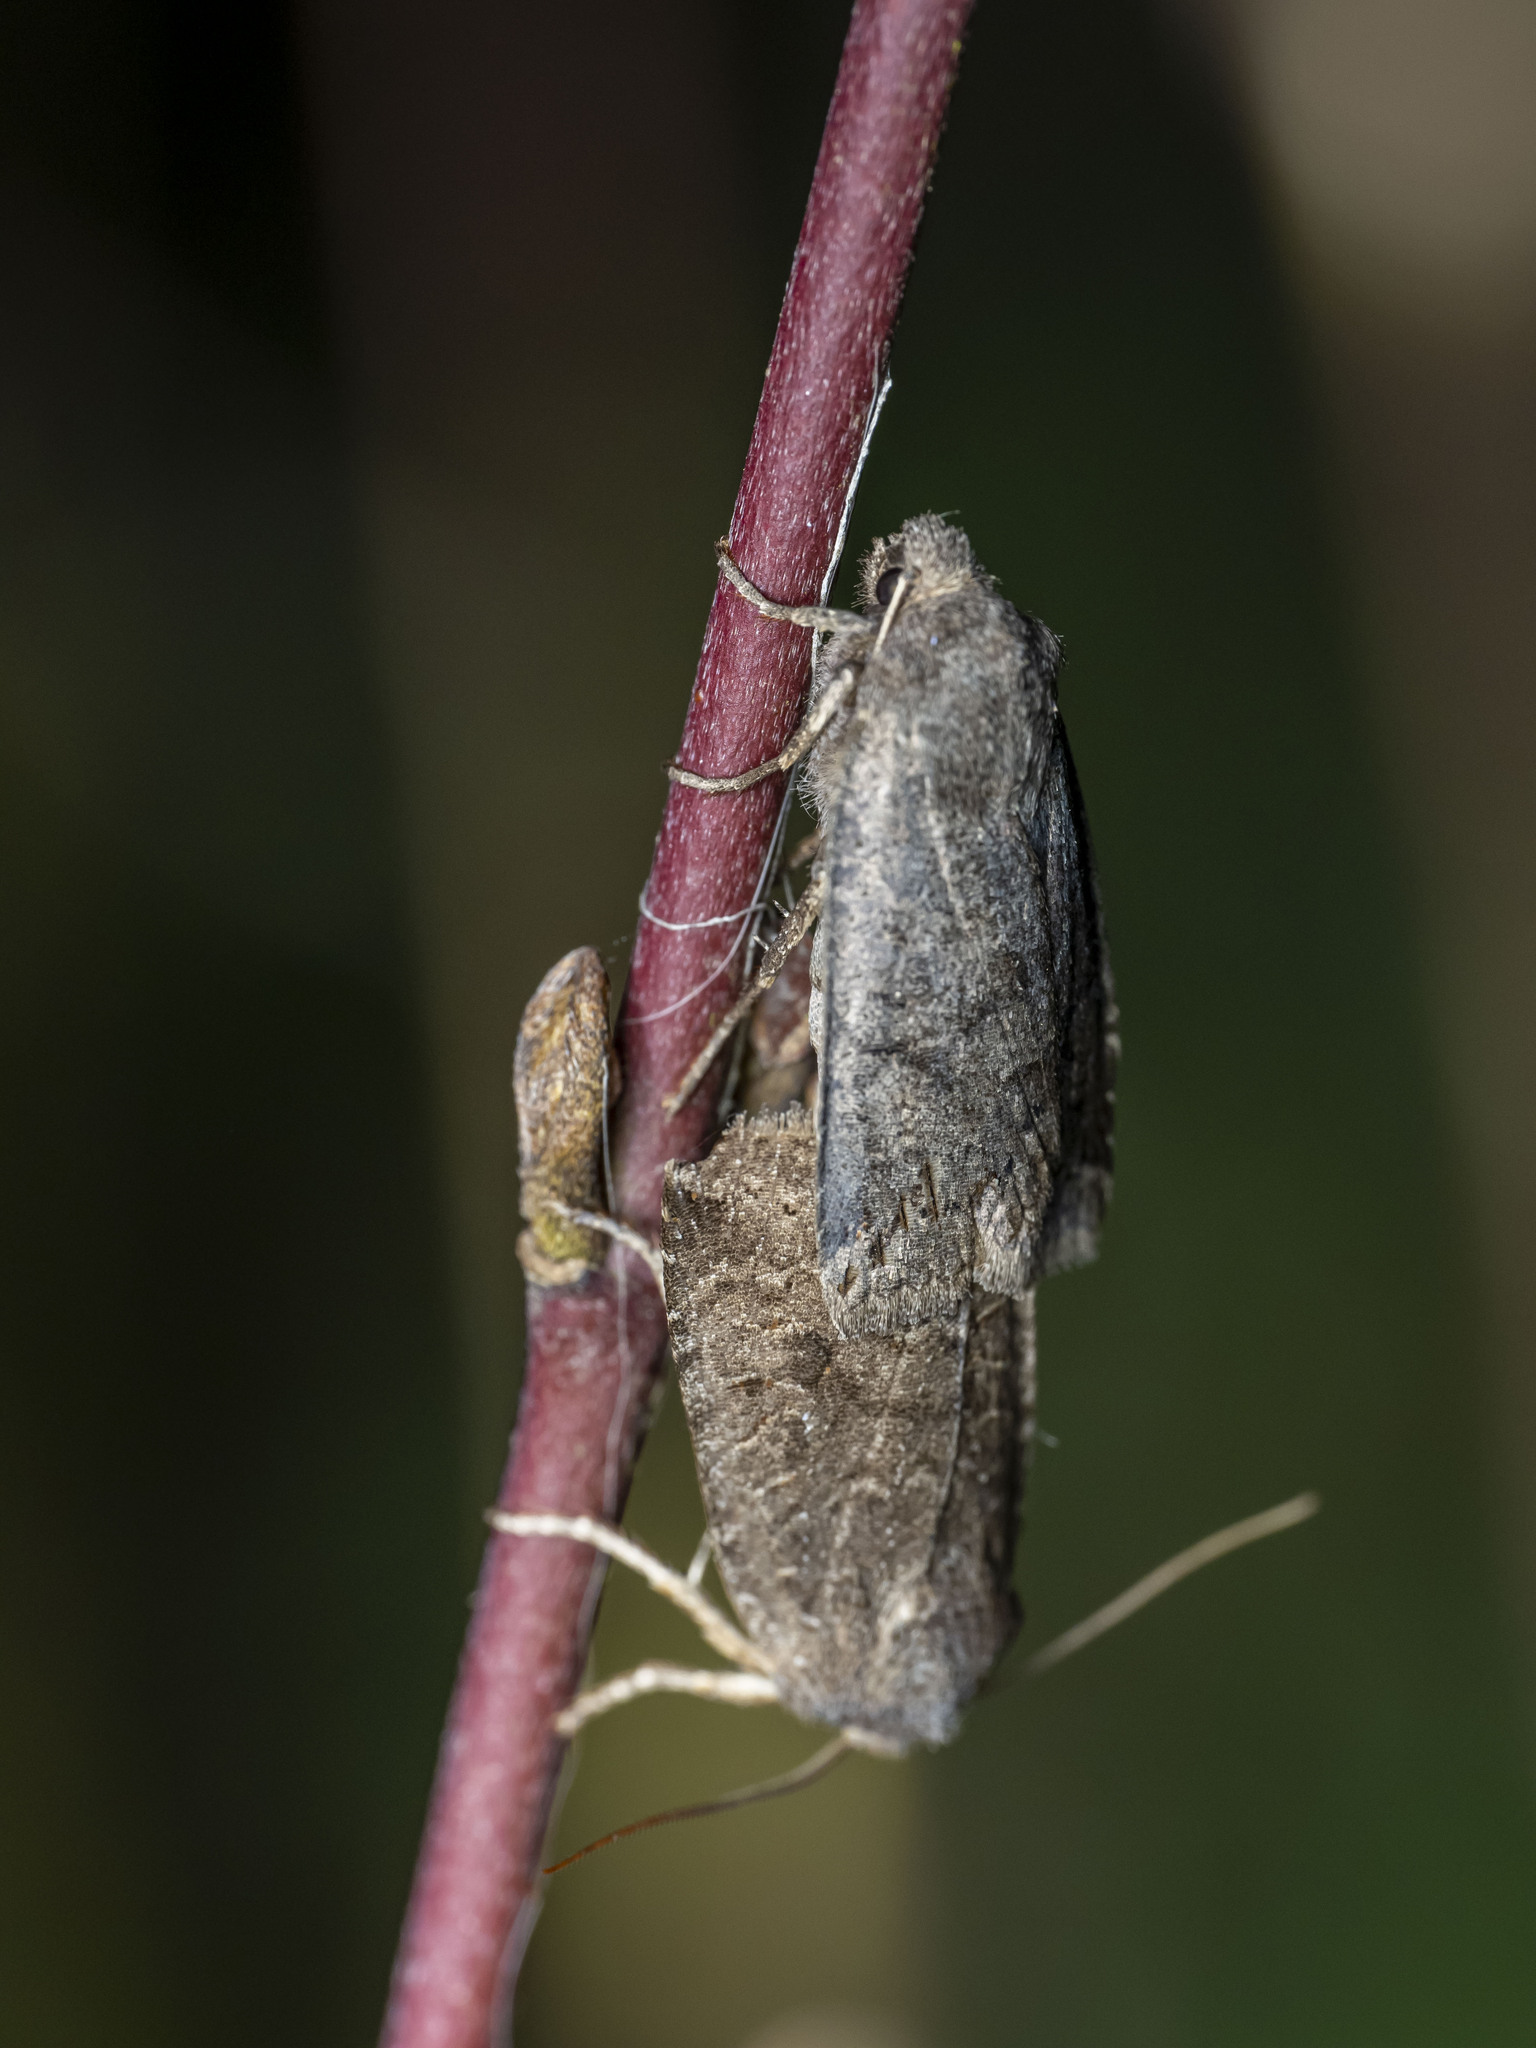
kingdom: Animalia
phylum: Arthropoda
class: Insecta
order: Lepidoptera
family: Noctuidae
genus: Conistra
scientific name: Conistra ligula
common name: Dark chestnut
